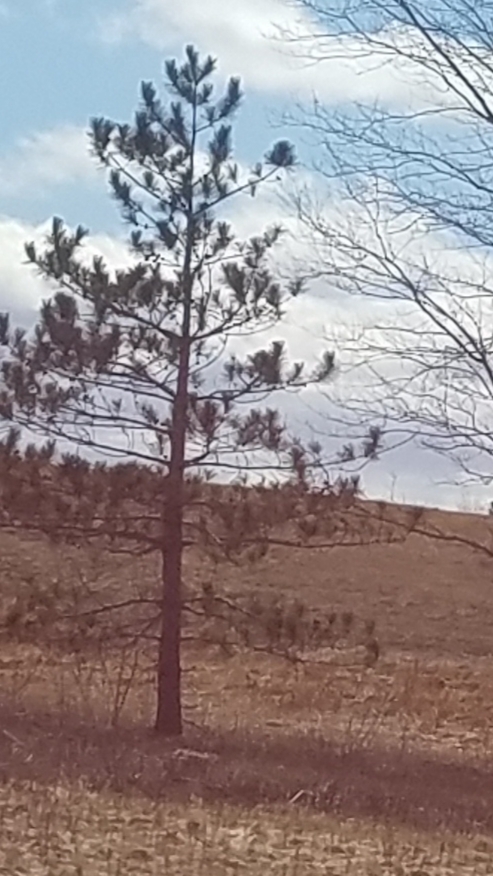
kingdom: Plantae
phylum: Tracheophyta
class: Pinopsida
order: Pinales
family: Pinaceae
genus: Pinus
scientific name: Pinus resinosa
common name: Norway pine
